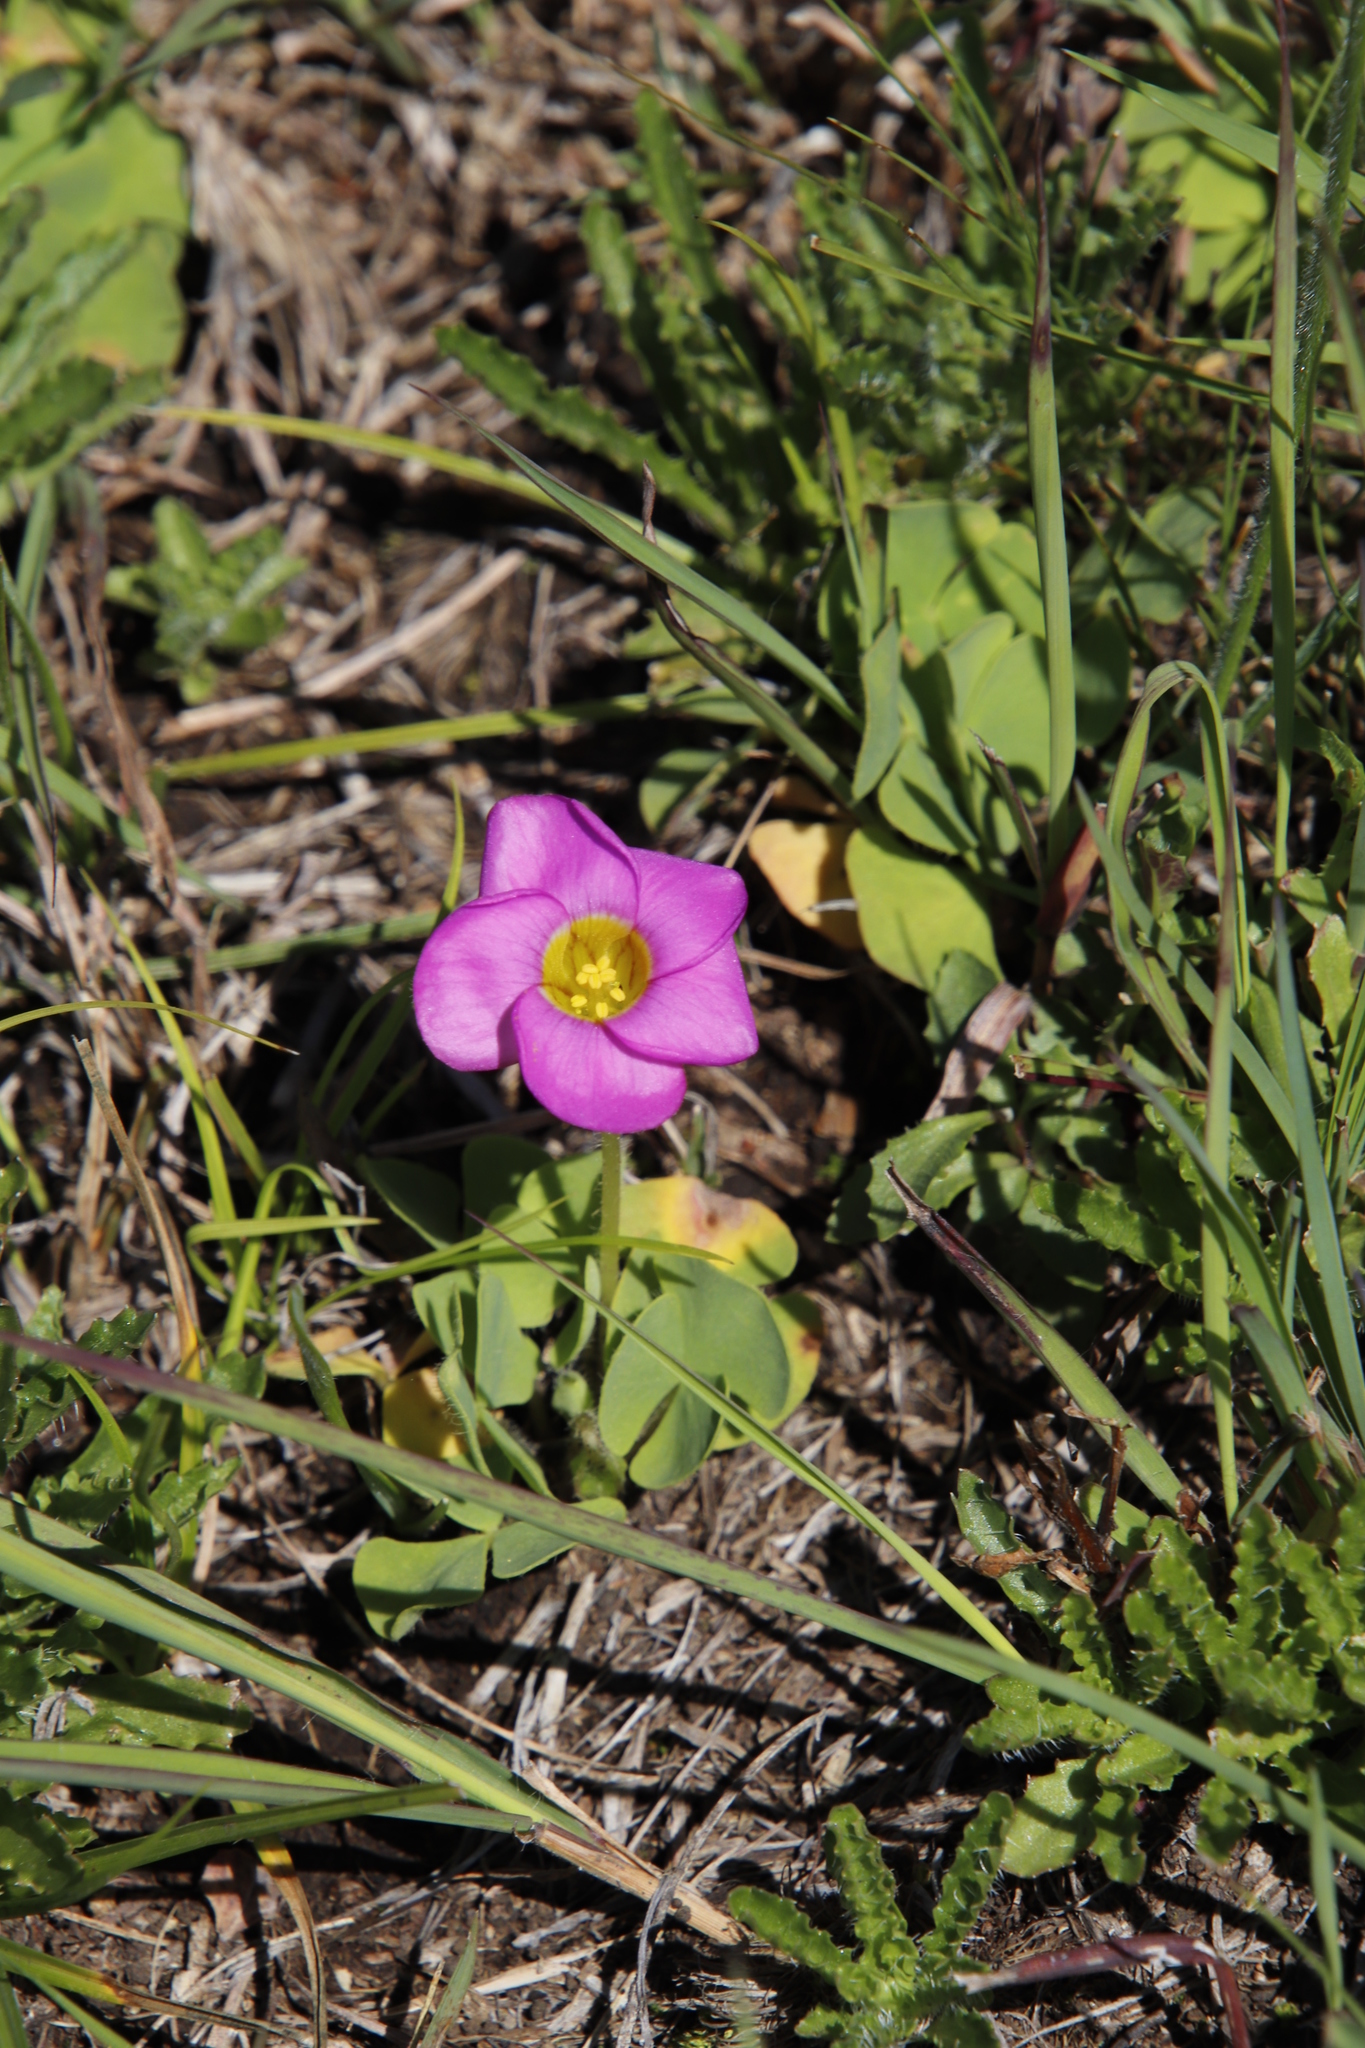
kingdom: Plantae
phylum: Tracheophyta
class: Magnoliopsida
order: Oxalidales
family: Oxalidaceae
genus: Oxalis
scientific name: Oxalis obliquifolia
